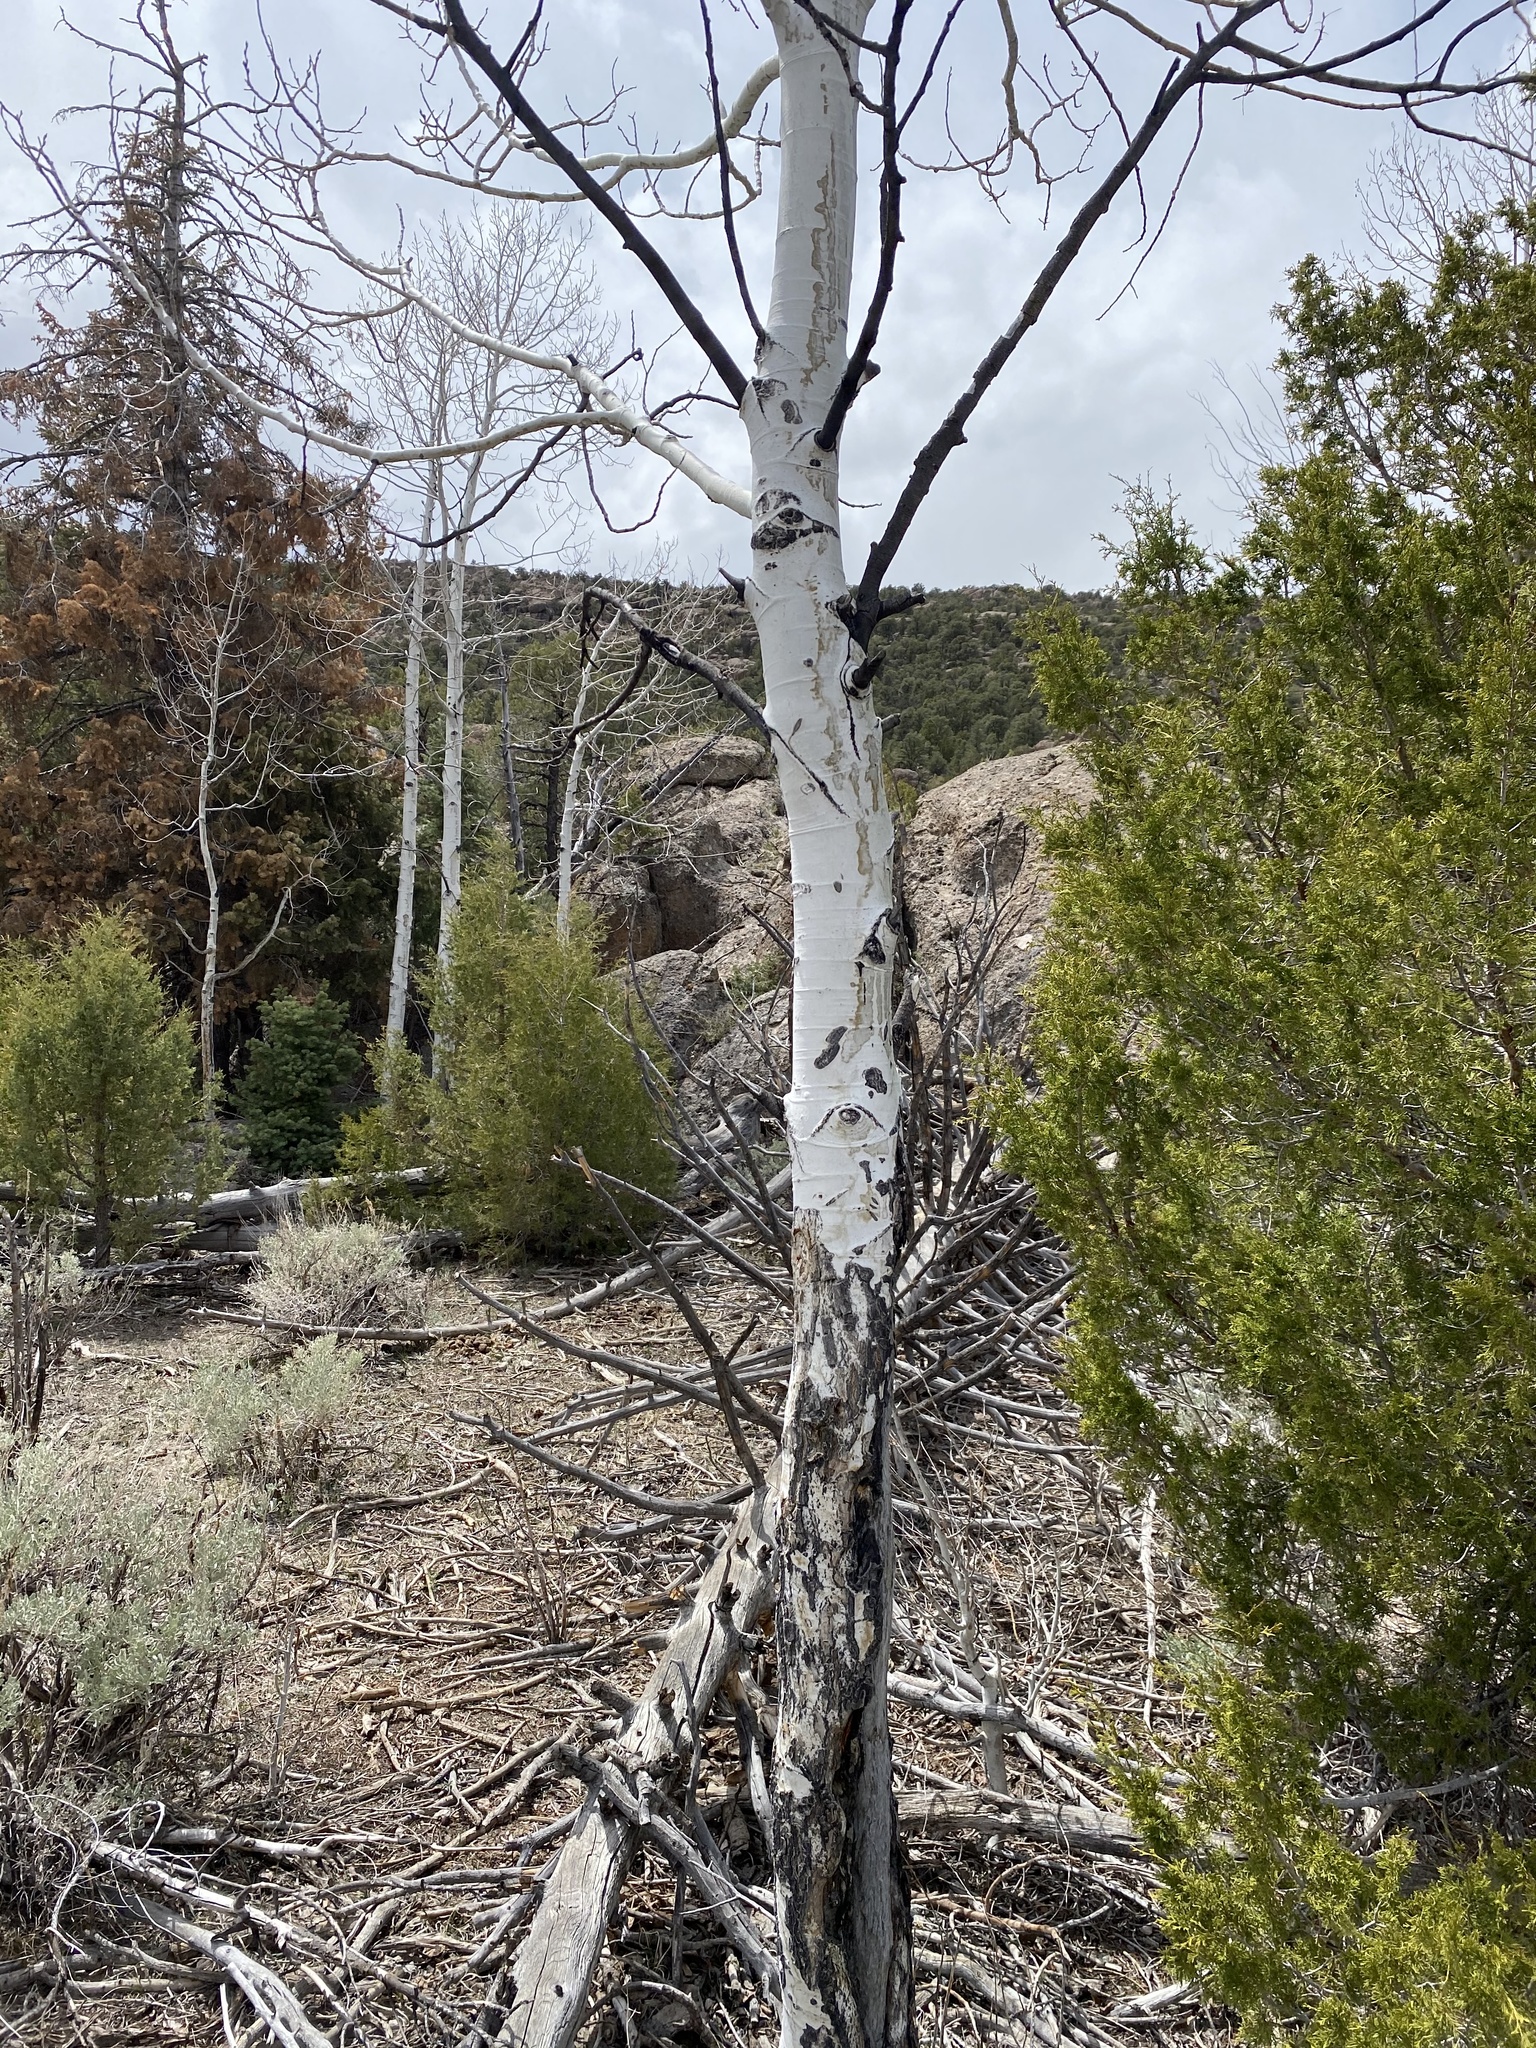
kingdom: Plantae
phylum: Tracheophyta
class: Magnoliopsida
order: Malpighiales
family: Salicaceae
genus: Populus
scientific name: Populus tremuloides
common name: Quaking aspen
